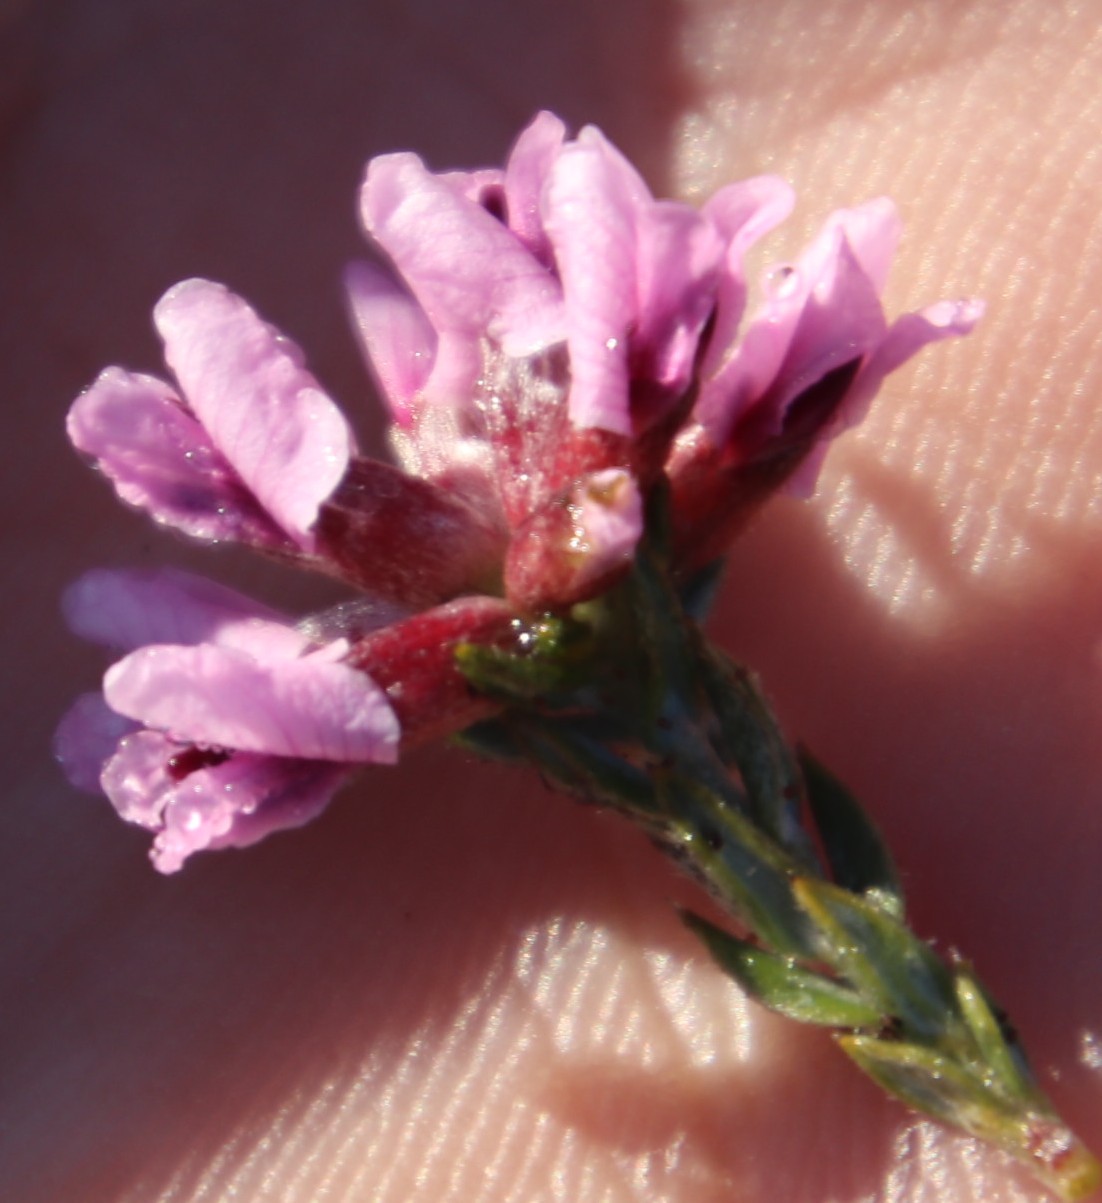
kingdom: Plantae
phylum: Tracheophyta
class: Magnoliopsida
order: Fabales
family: Fabaceae
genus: Amphithalea
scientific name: Amphithalea ericifolia
